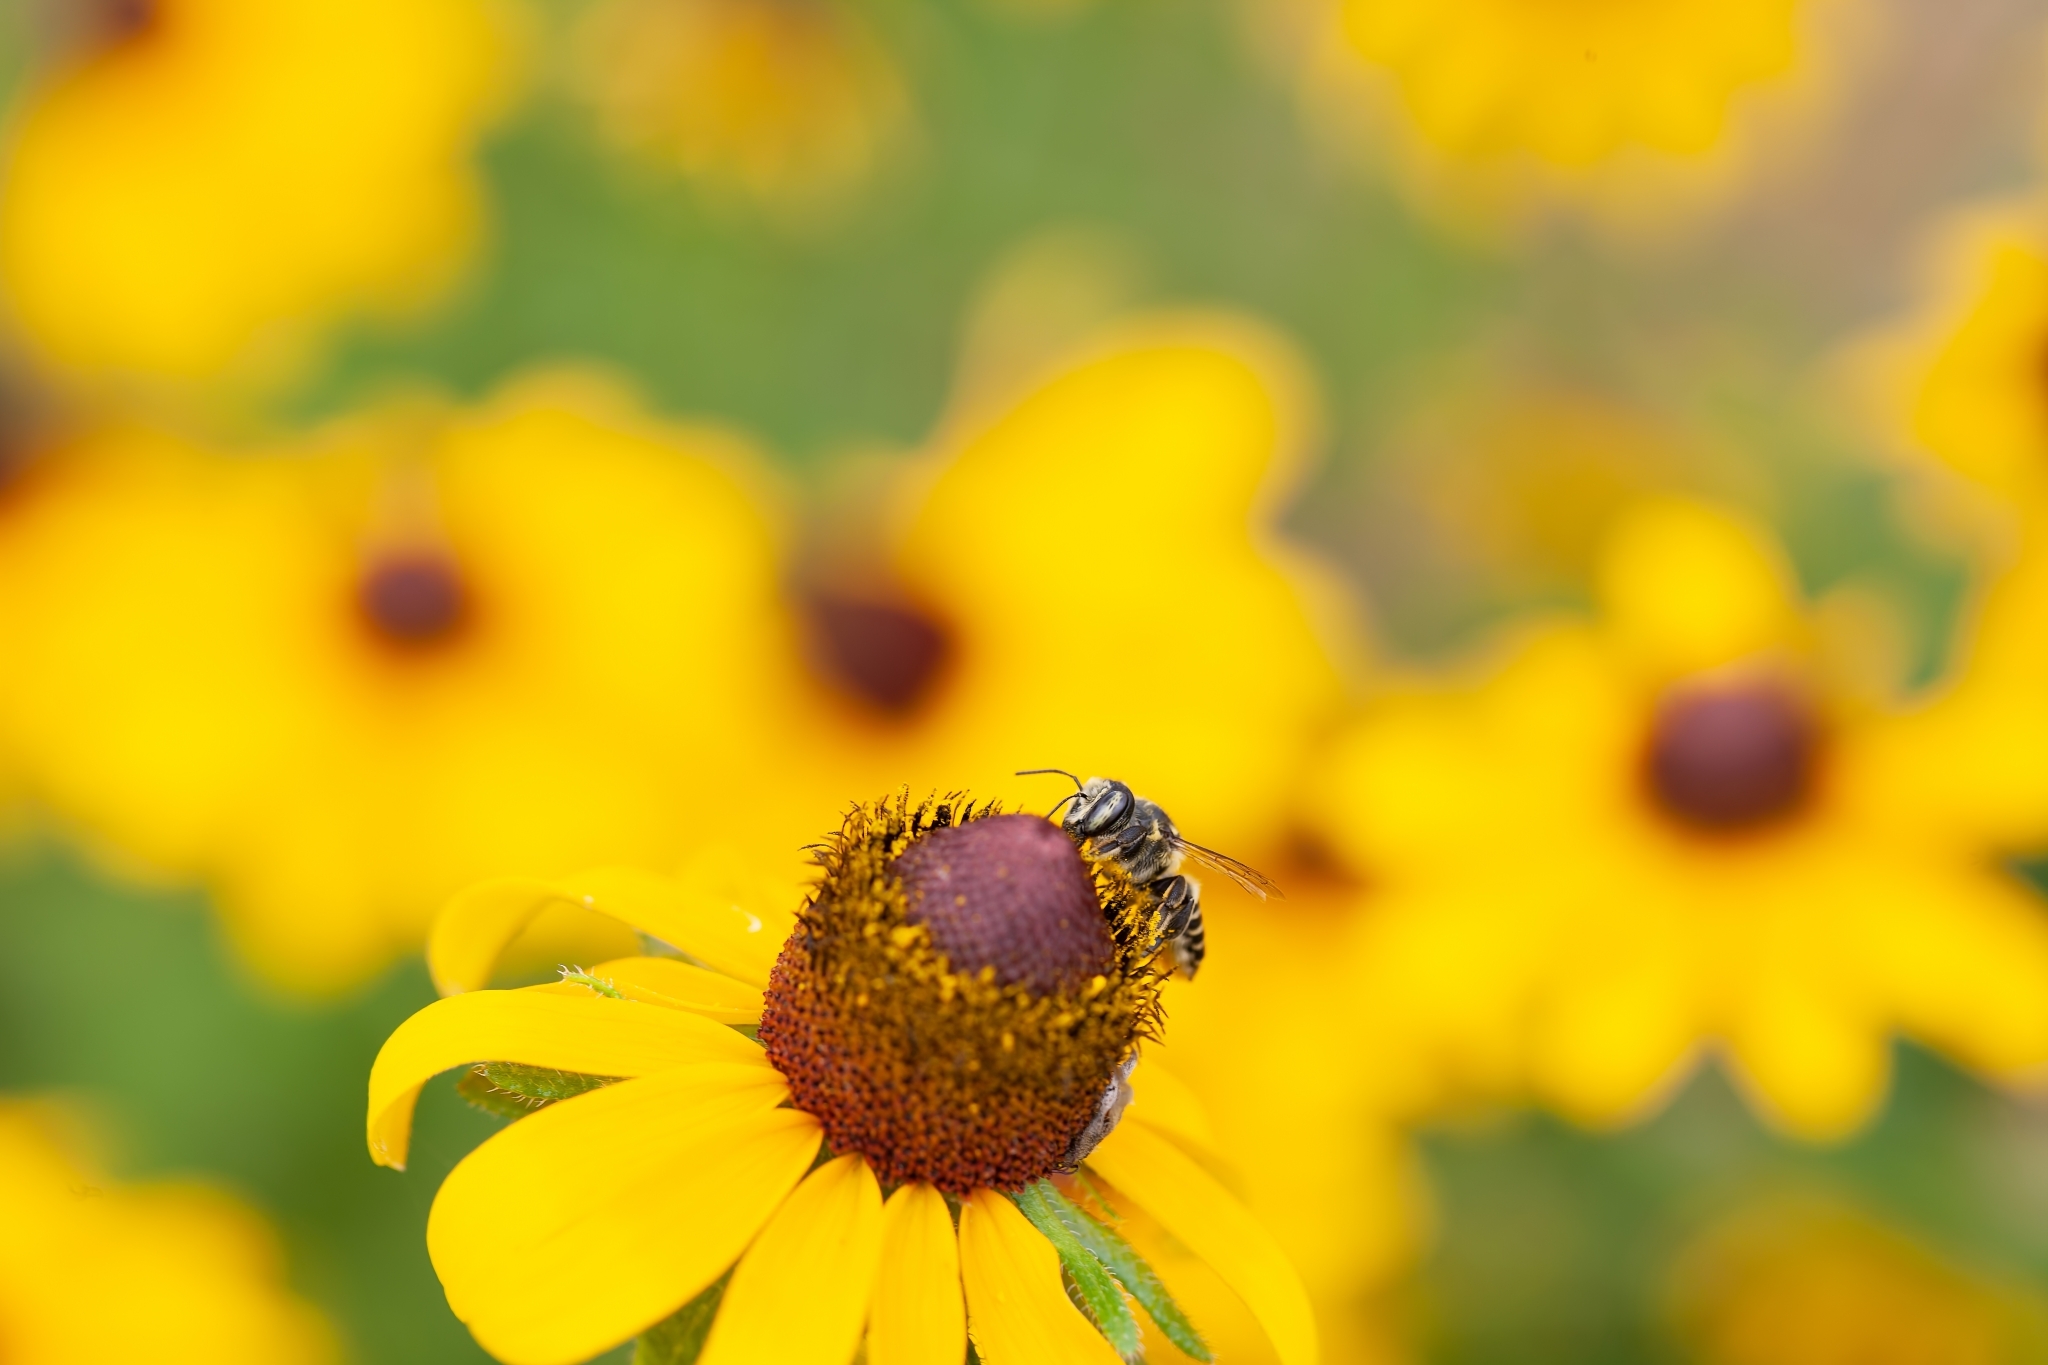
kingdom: Plantae
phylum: Tracheophyta
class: Magnoliopsida
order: Asterales
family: Asteraceae
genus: Rudbeckia
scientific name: Rudbeckia hirta
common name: Black-eyed-susan
